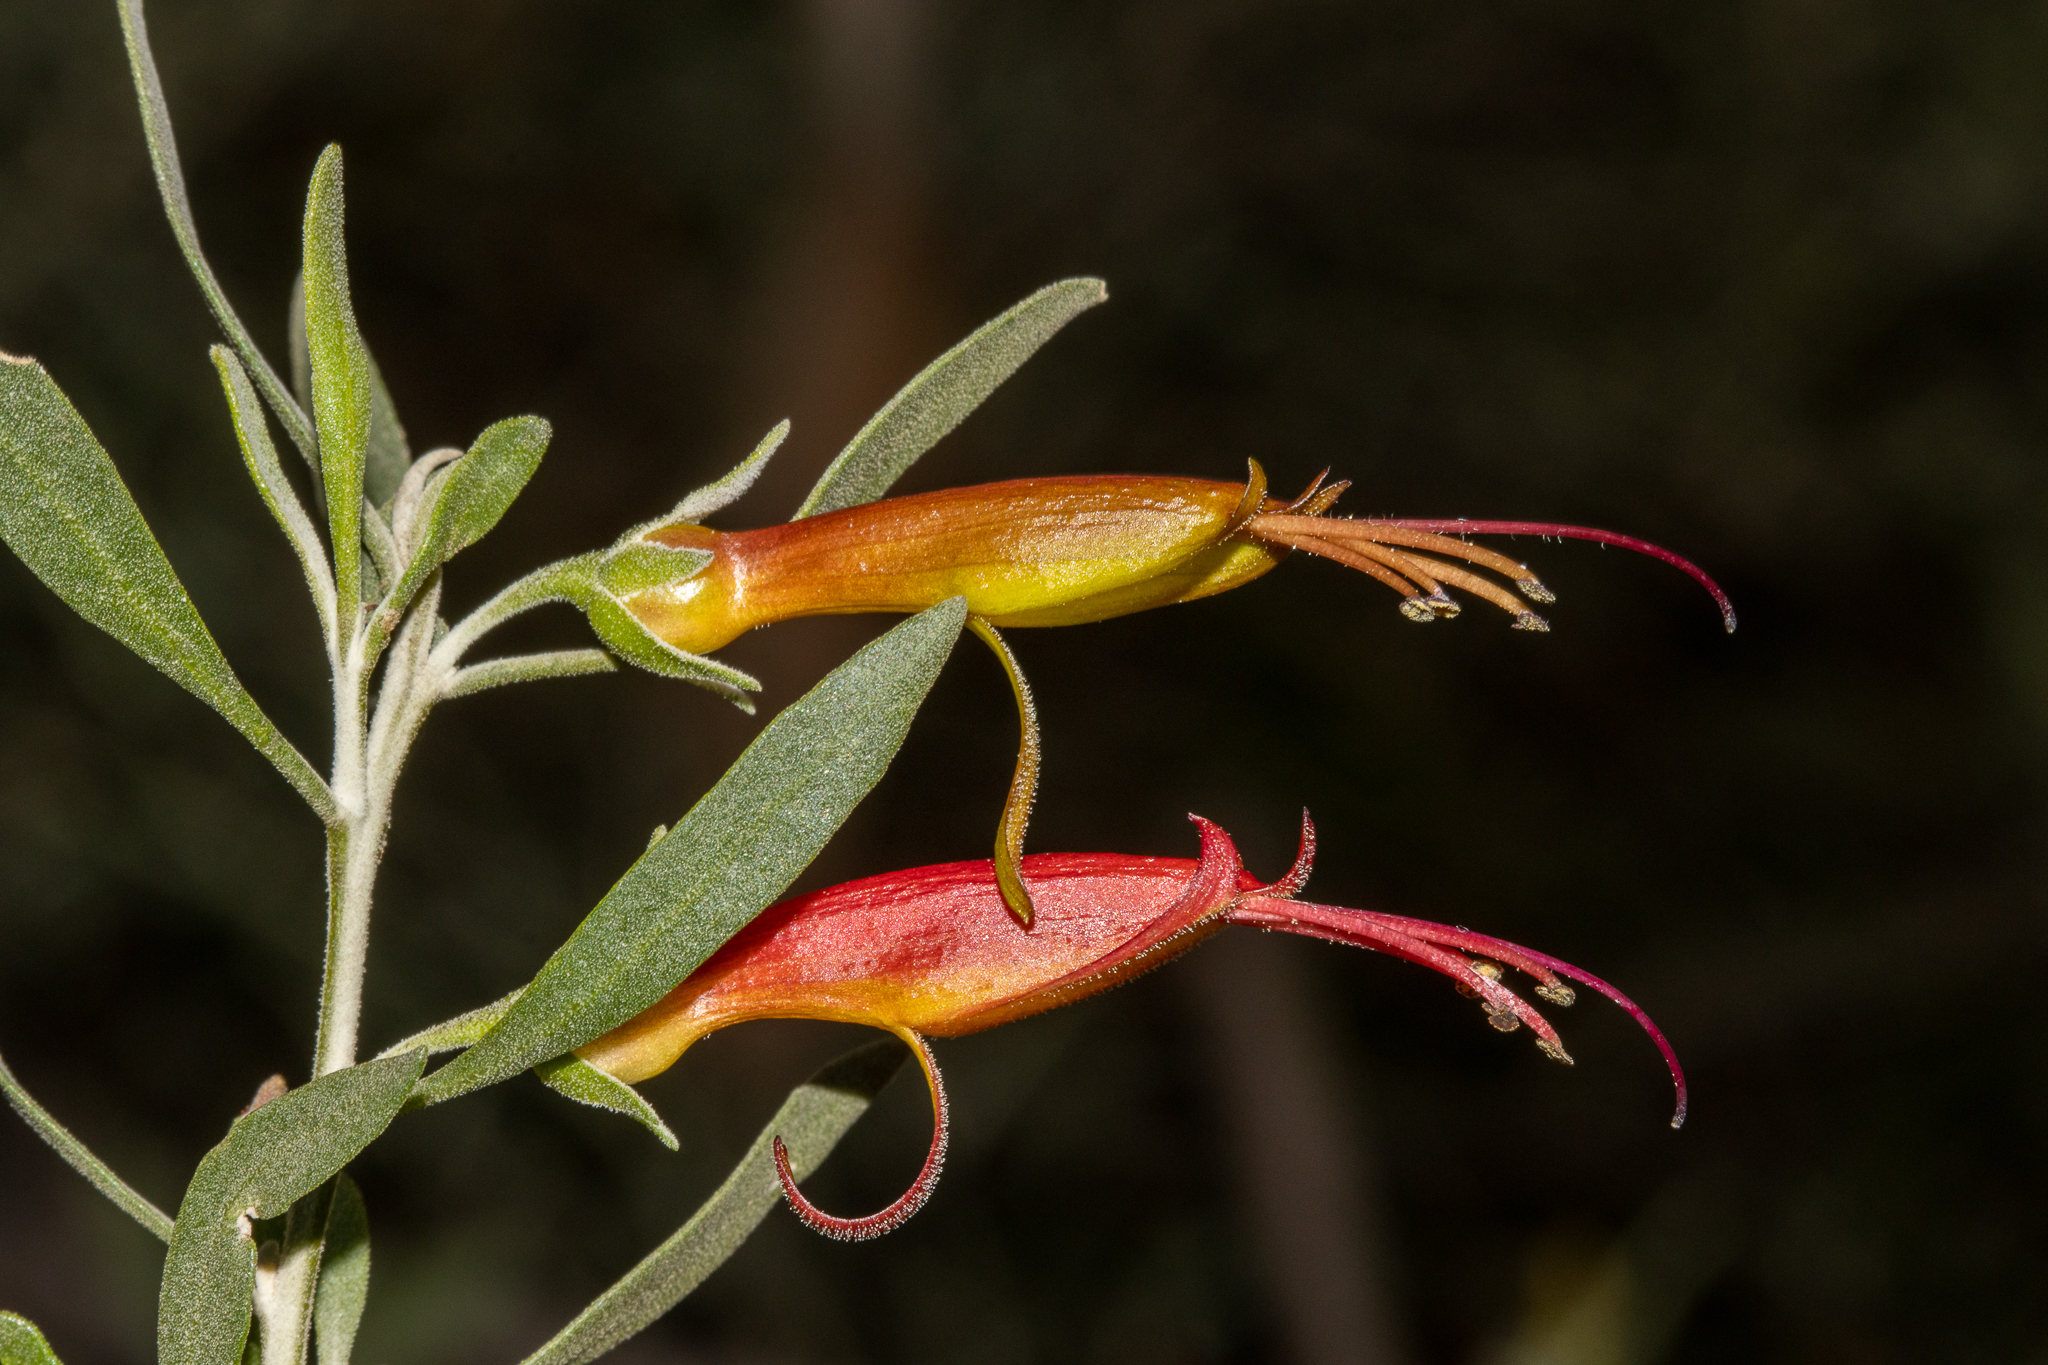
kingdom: Plantae
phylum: Tracheophyta
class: Magnoliopsida
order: Lamiales
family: Scrophulariaceae
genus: Eremophila
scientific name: Eremophila glabra
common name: Black-fuchsia
